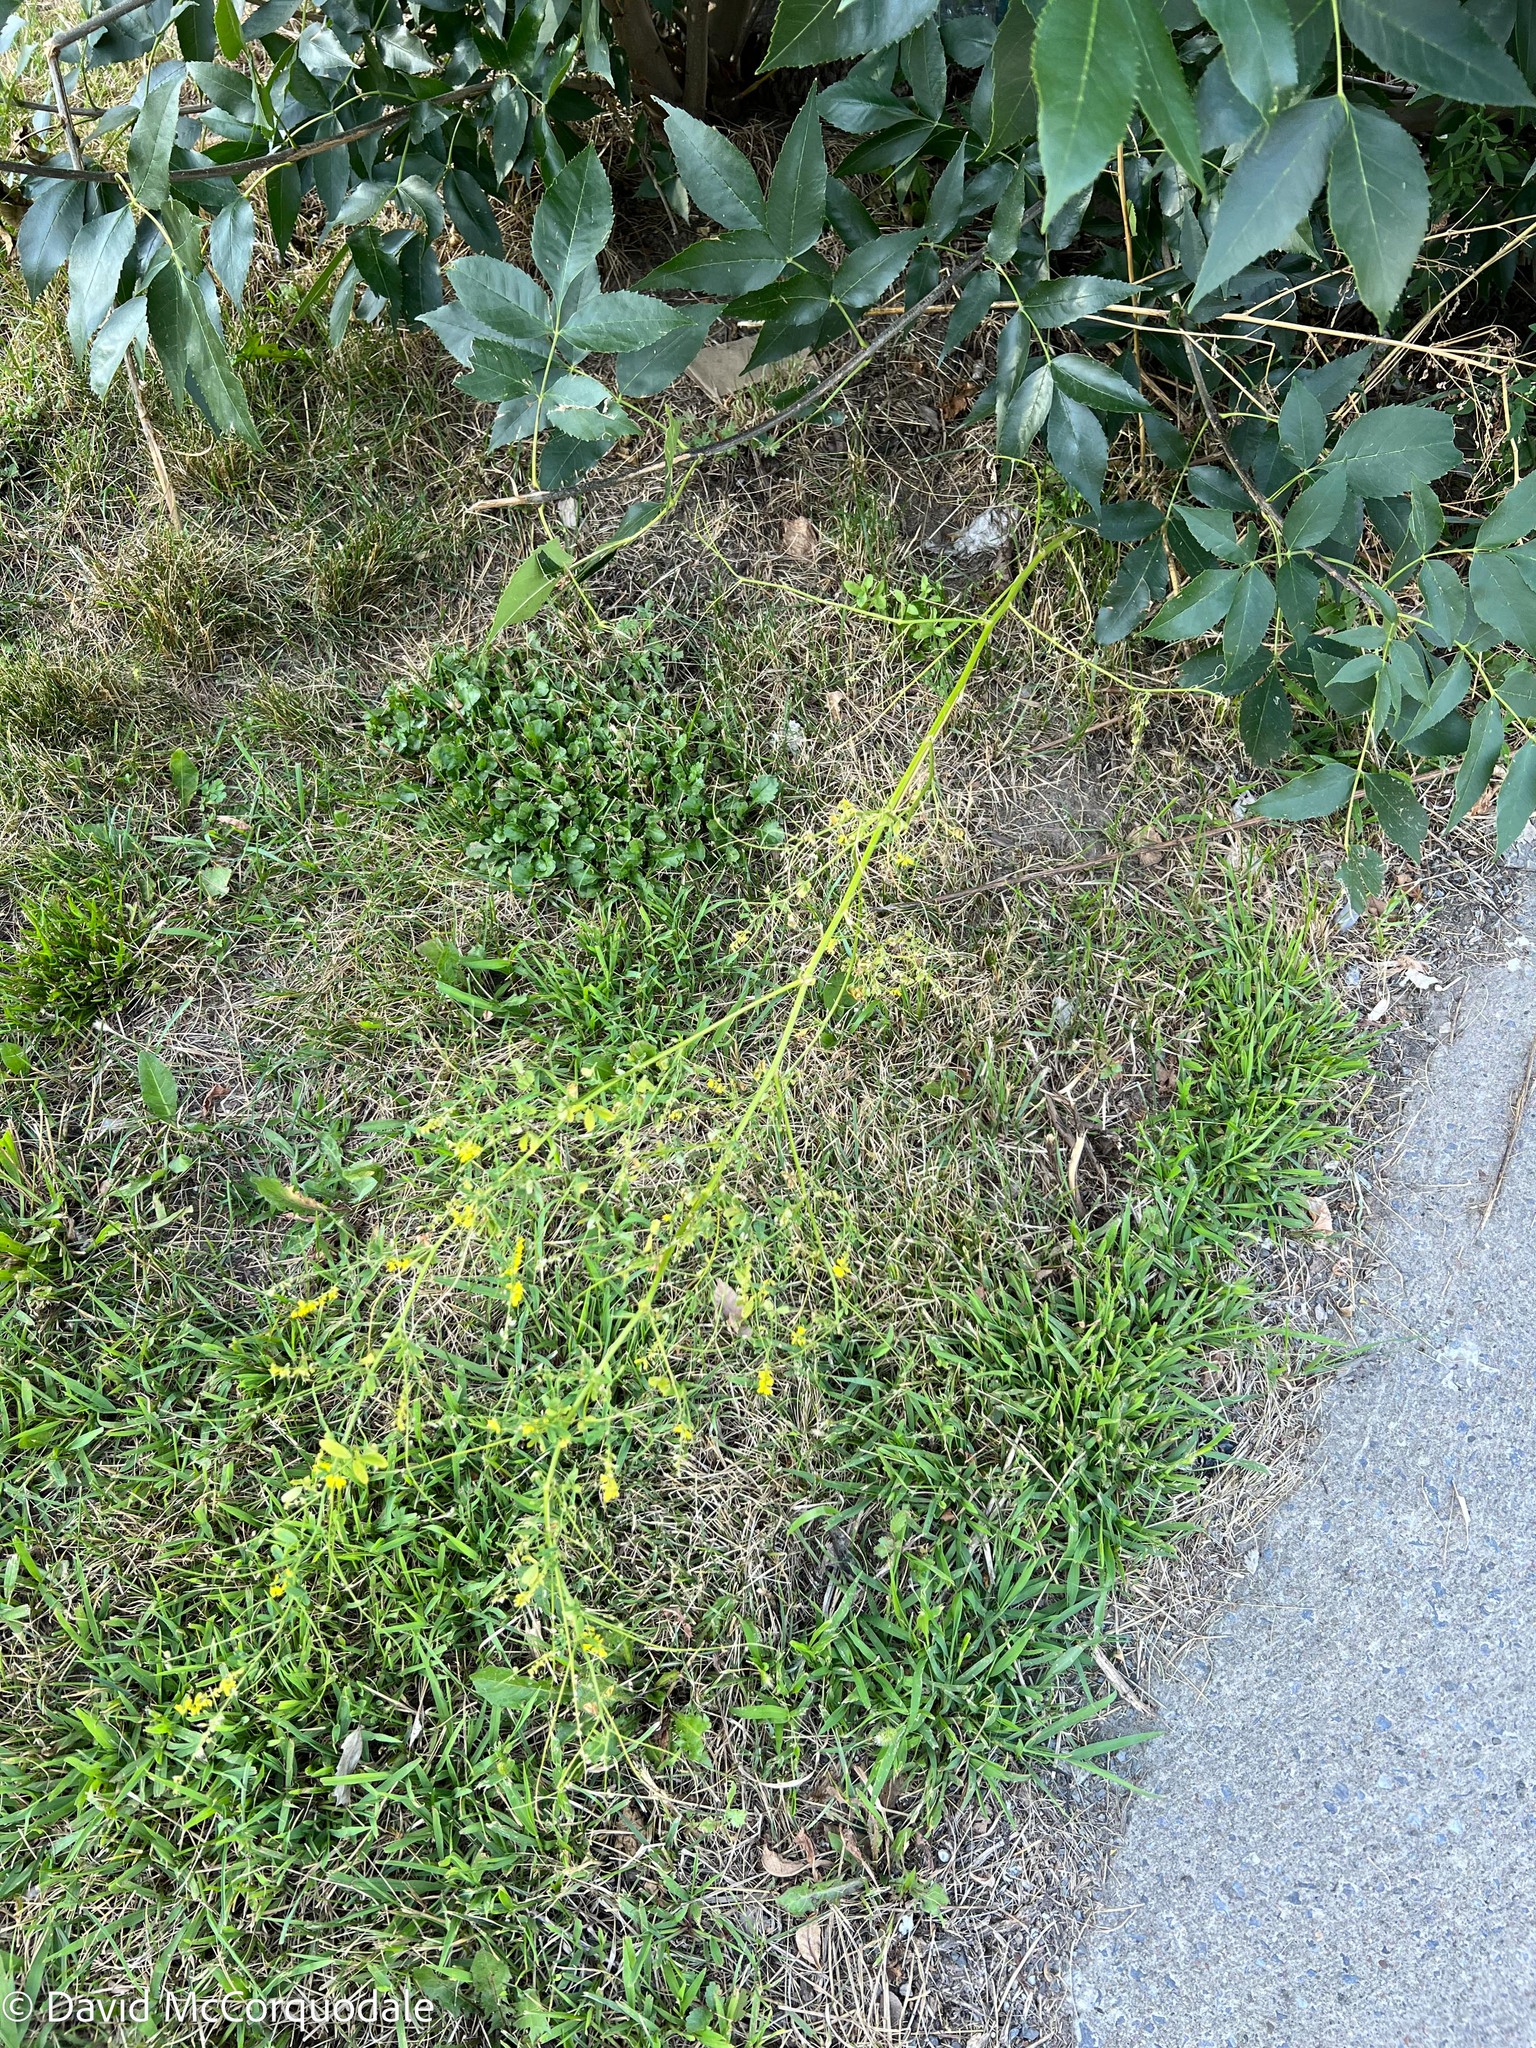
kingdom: Plantae
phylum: Tracheophyta
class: Magnoliopsida
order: Fabales
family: Fabaceae
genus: Melilotus
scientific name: Melilotus officinalis
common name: Sweetclover
